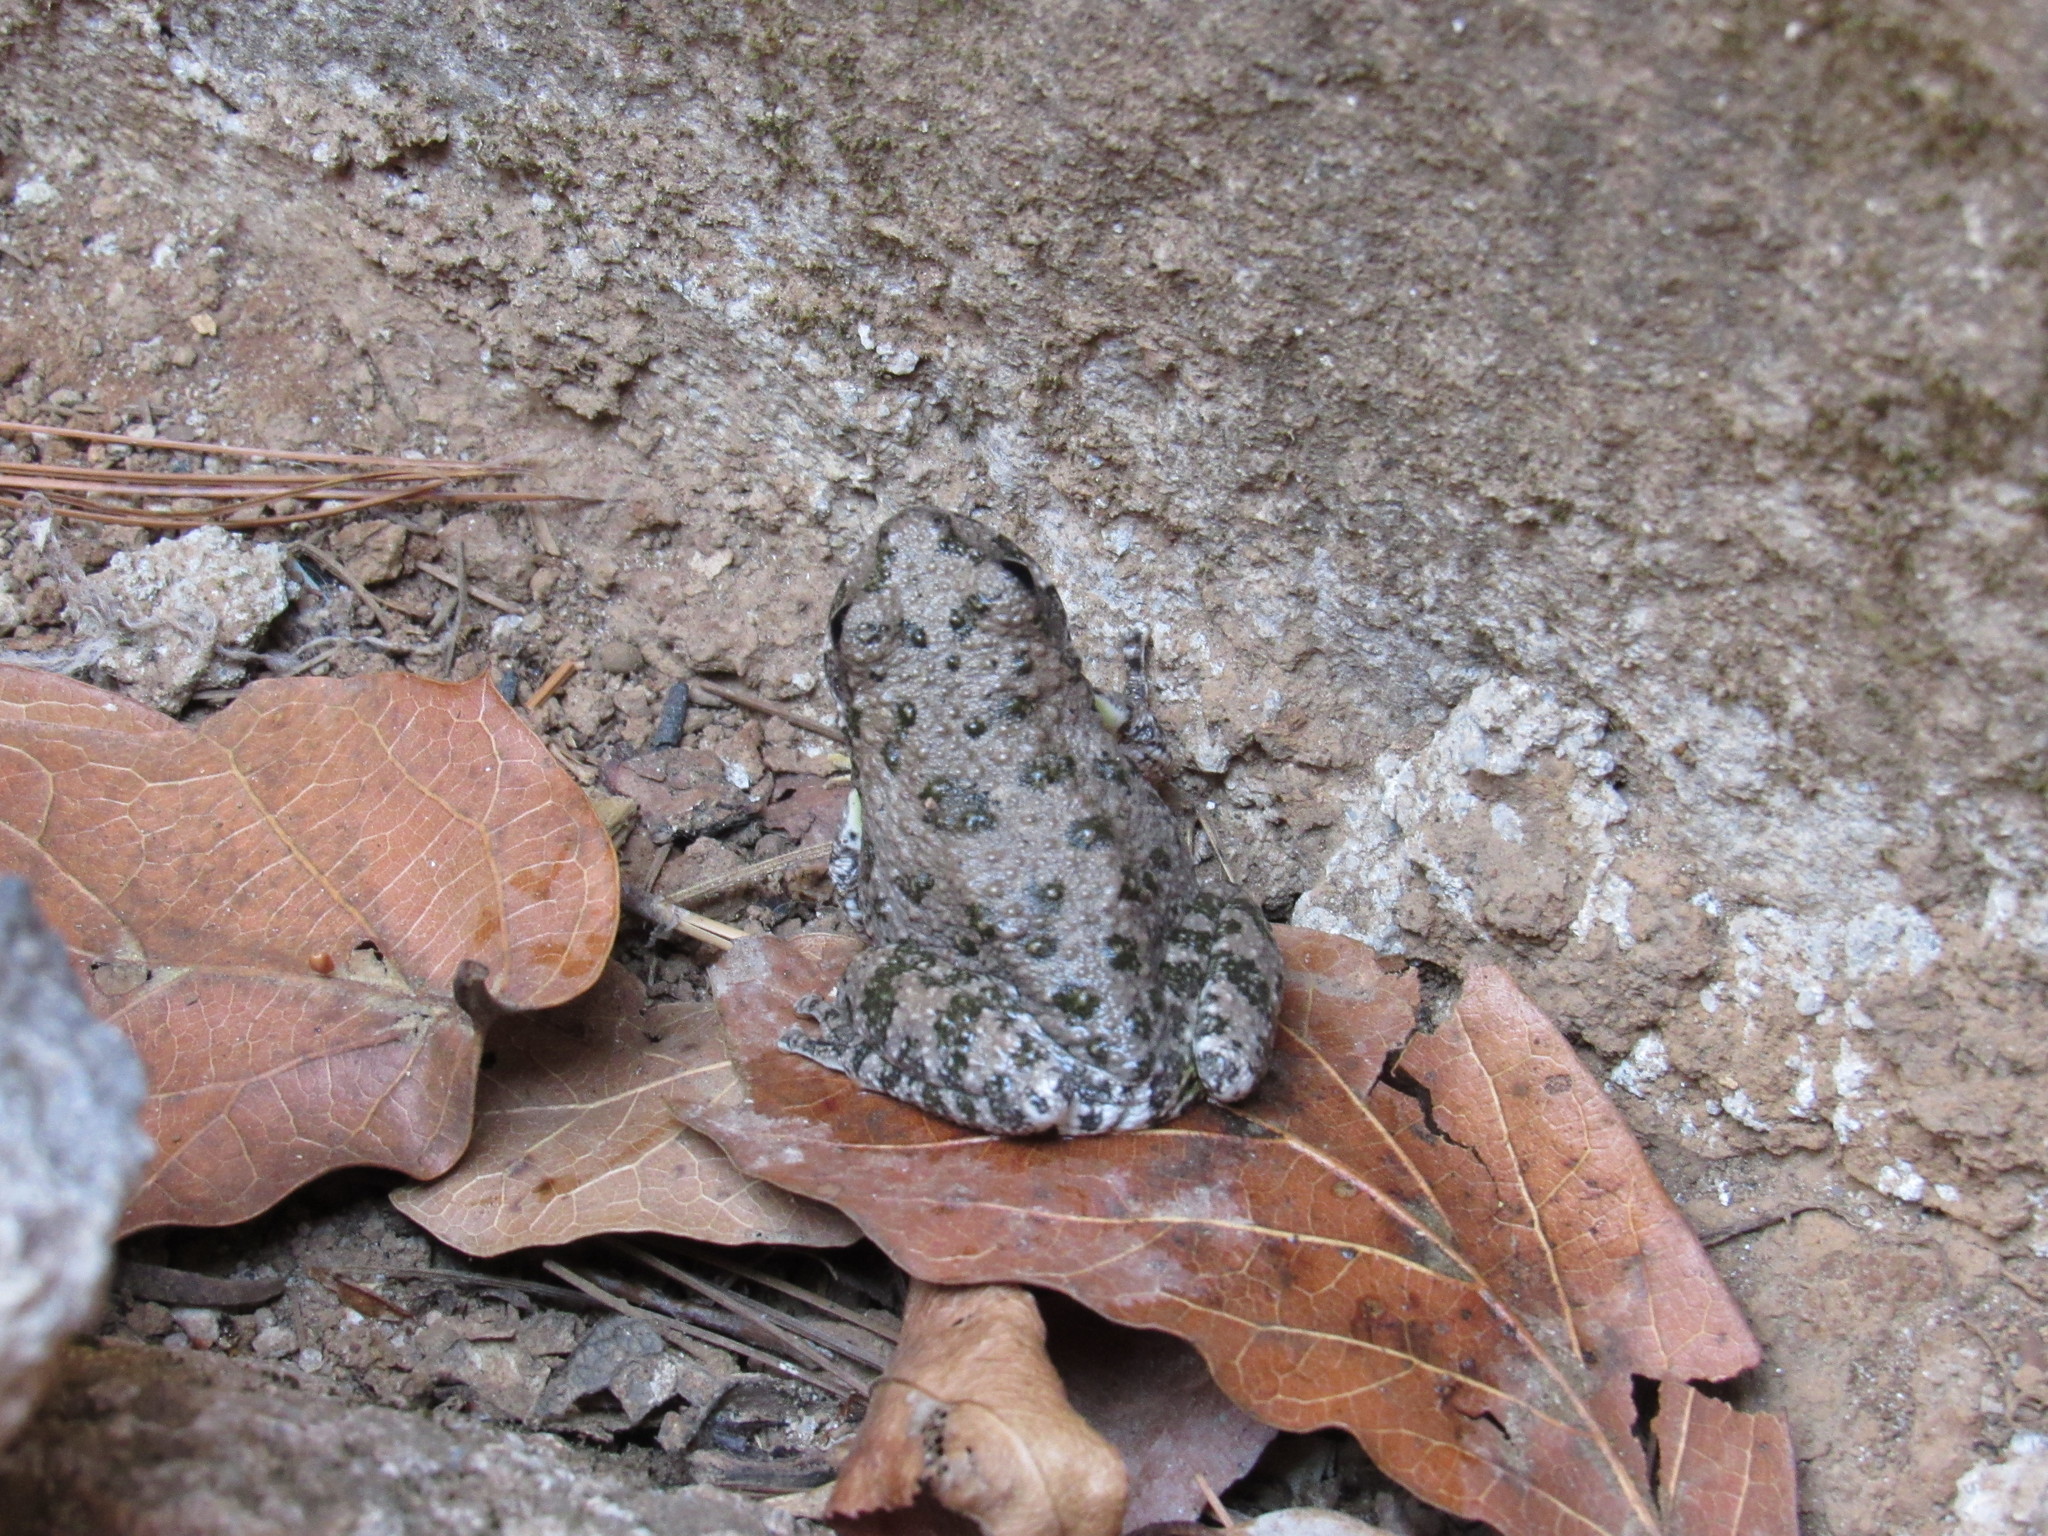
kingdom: Animalia
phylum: Chordata
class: Amphibia
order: Anura
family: Hylidae
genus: Dryophytes
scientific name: Dryophytes arenicolor
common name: Canyon treefrog
